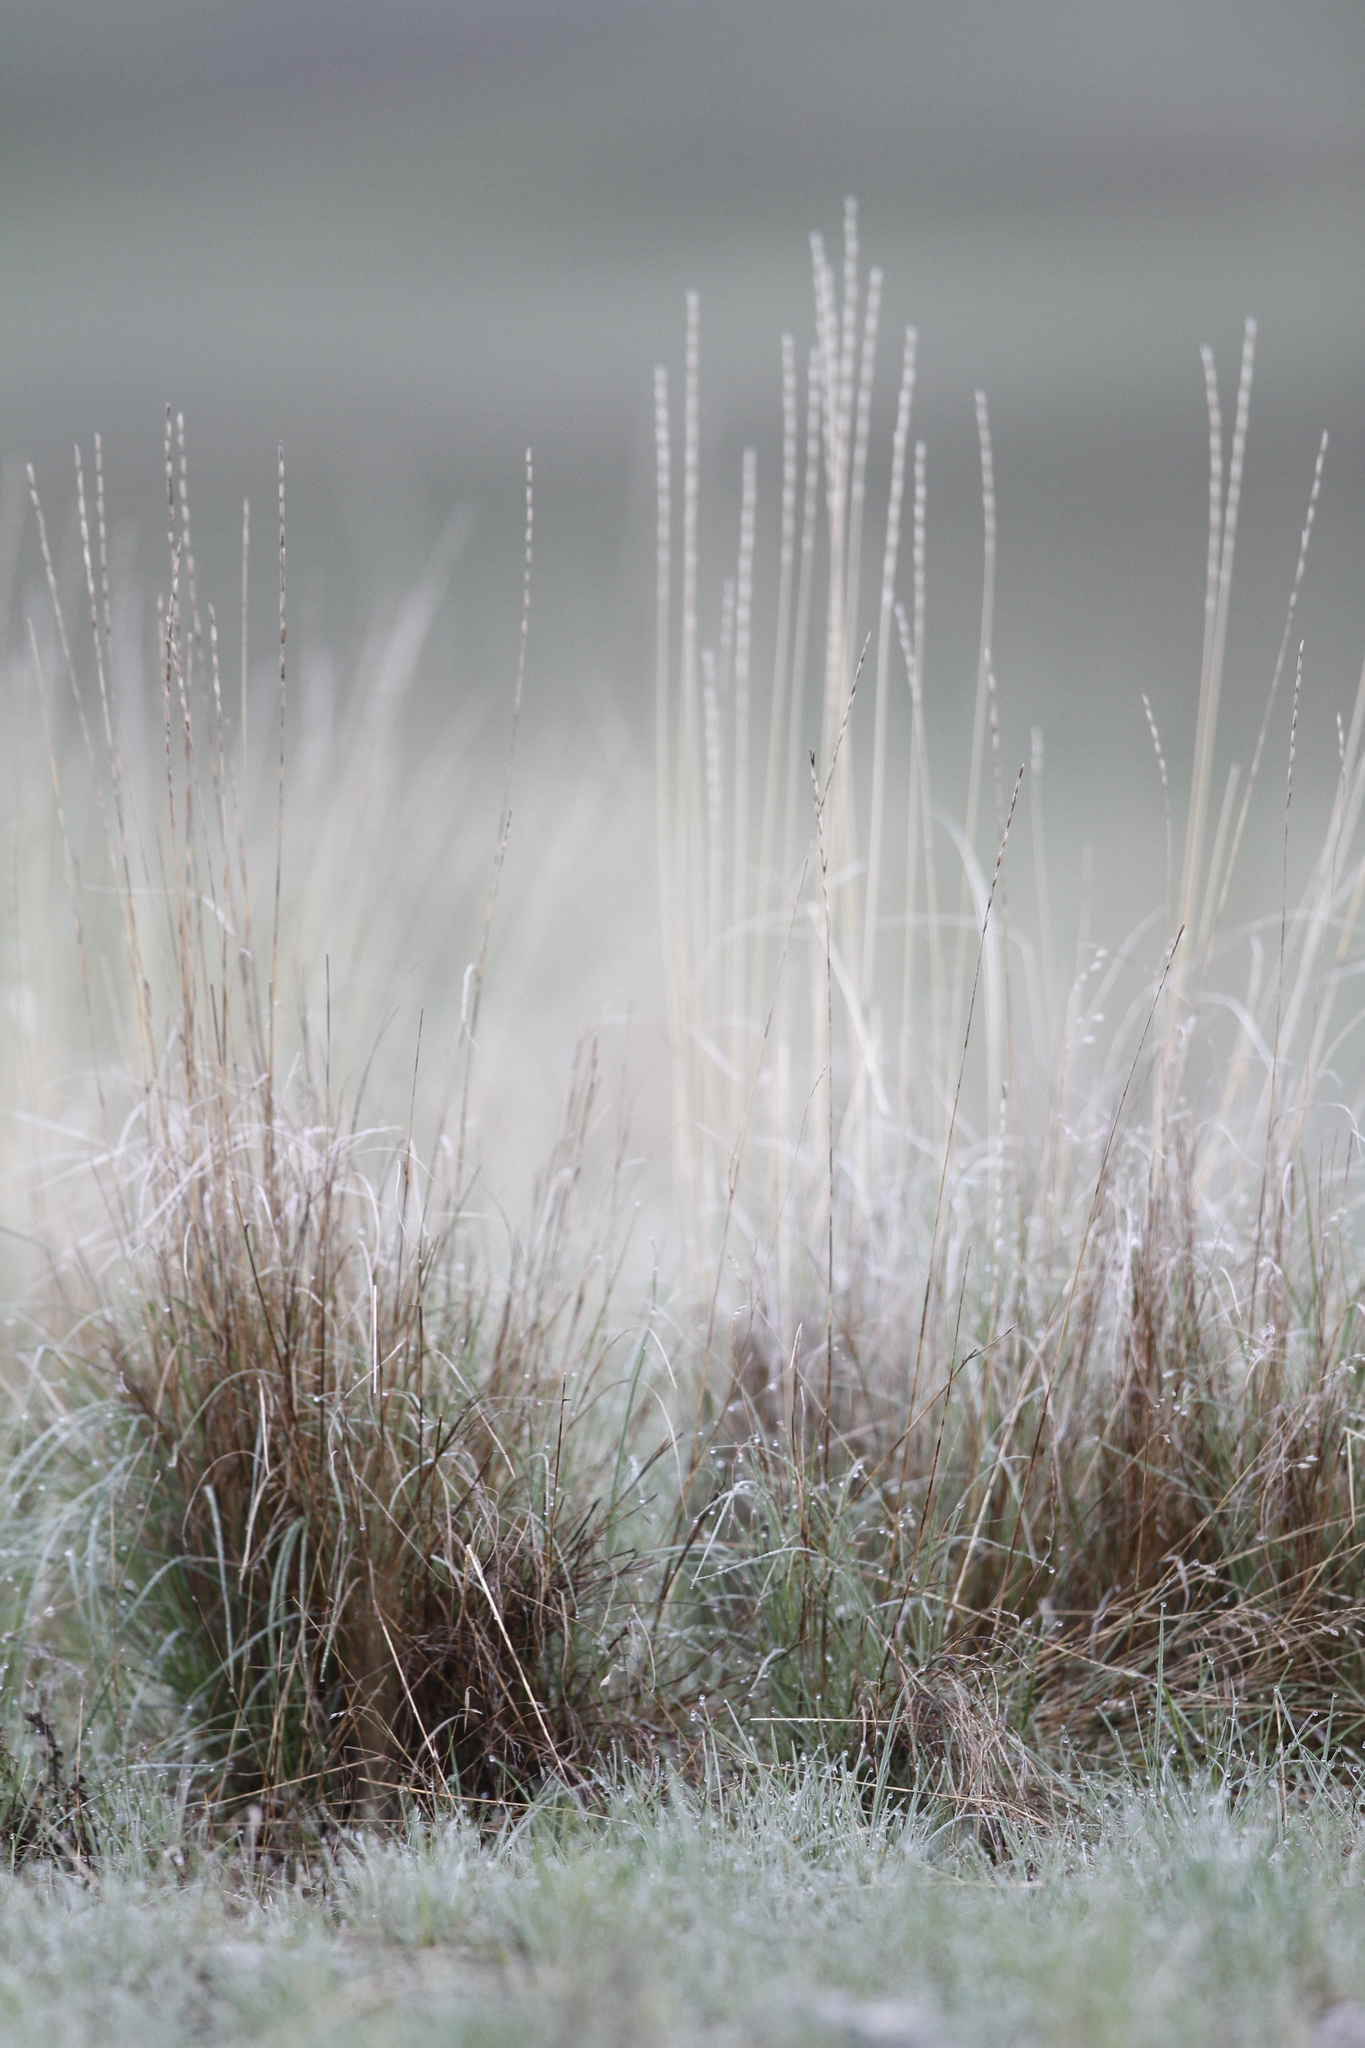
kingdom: Plantae
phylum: Tracheophyta
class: Liliopsida
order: Poales
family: Poaceae
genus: Pseudoroegneria
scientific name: Pseudoroegneria spicata
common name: Bluebunch wheatgrass
